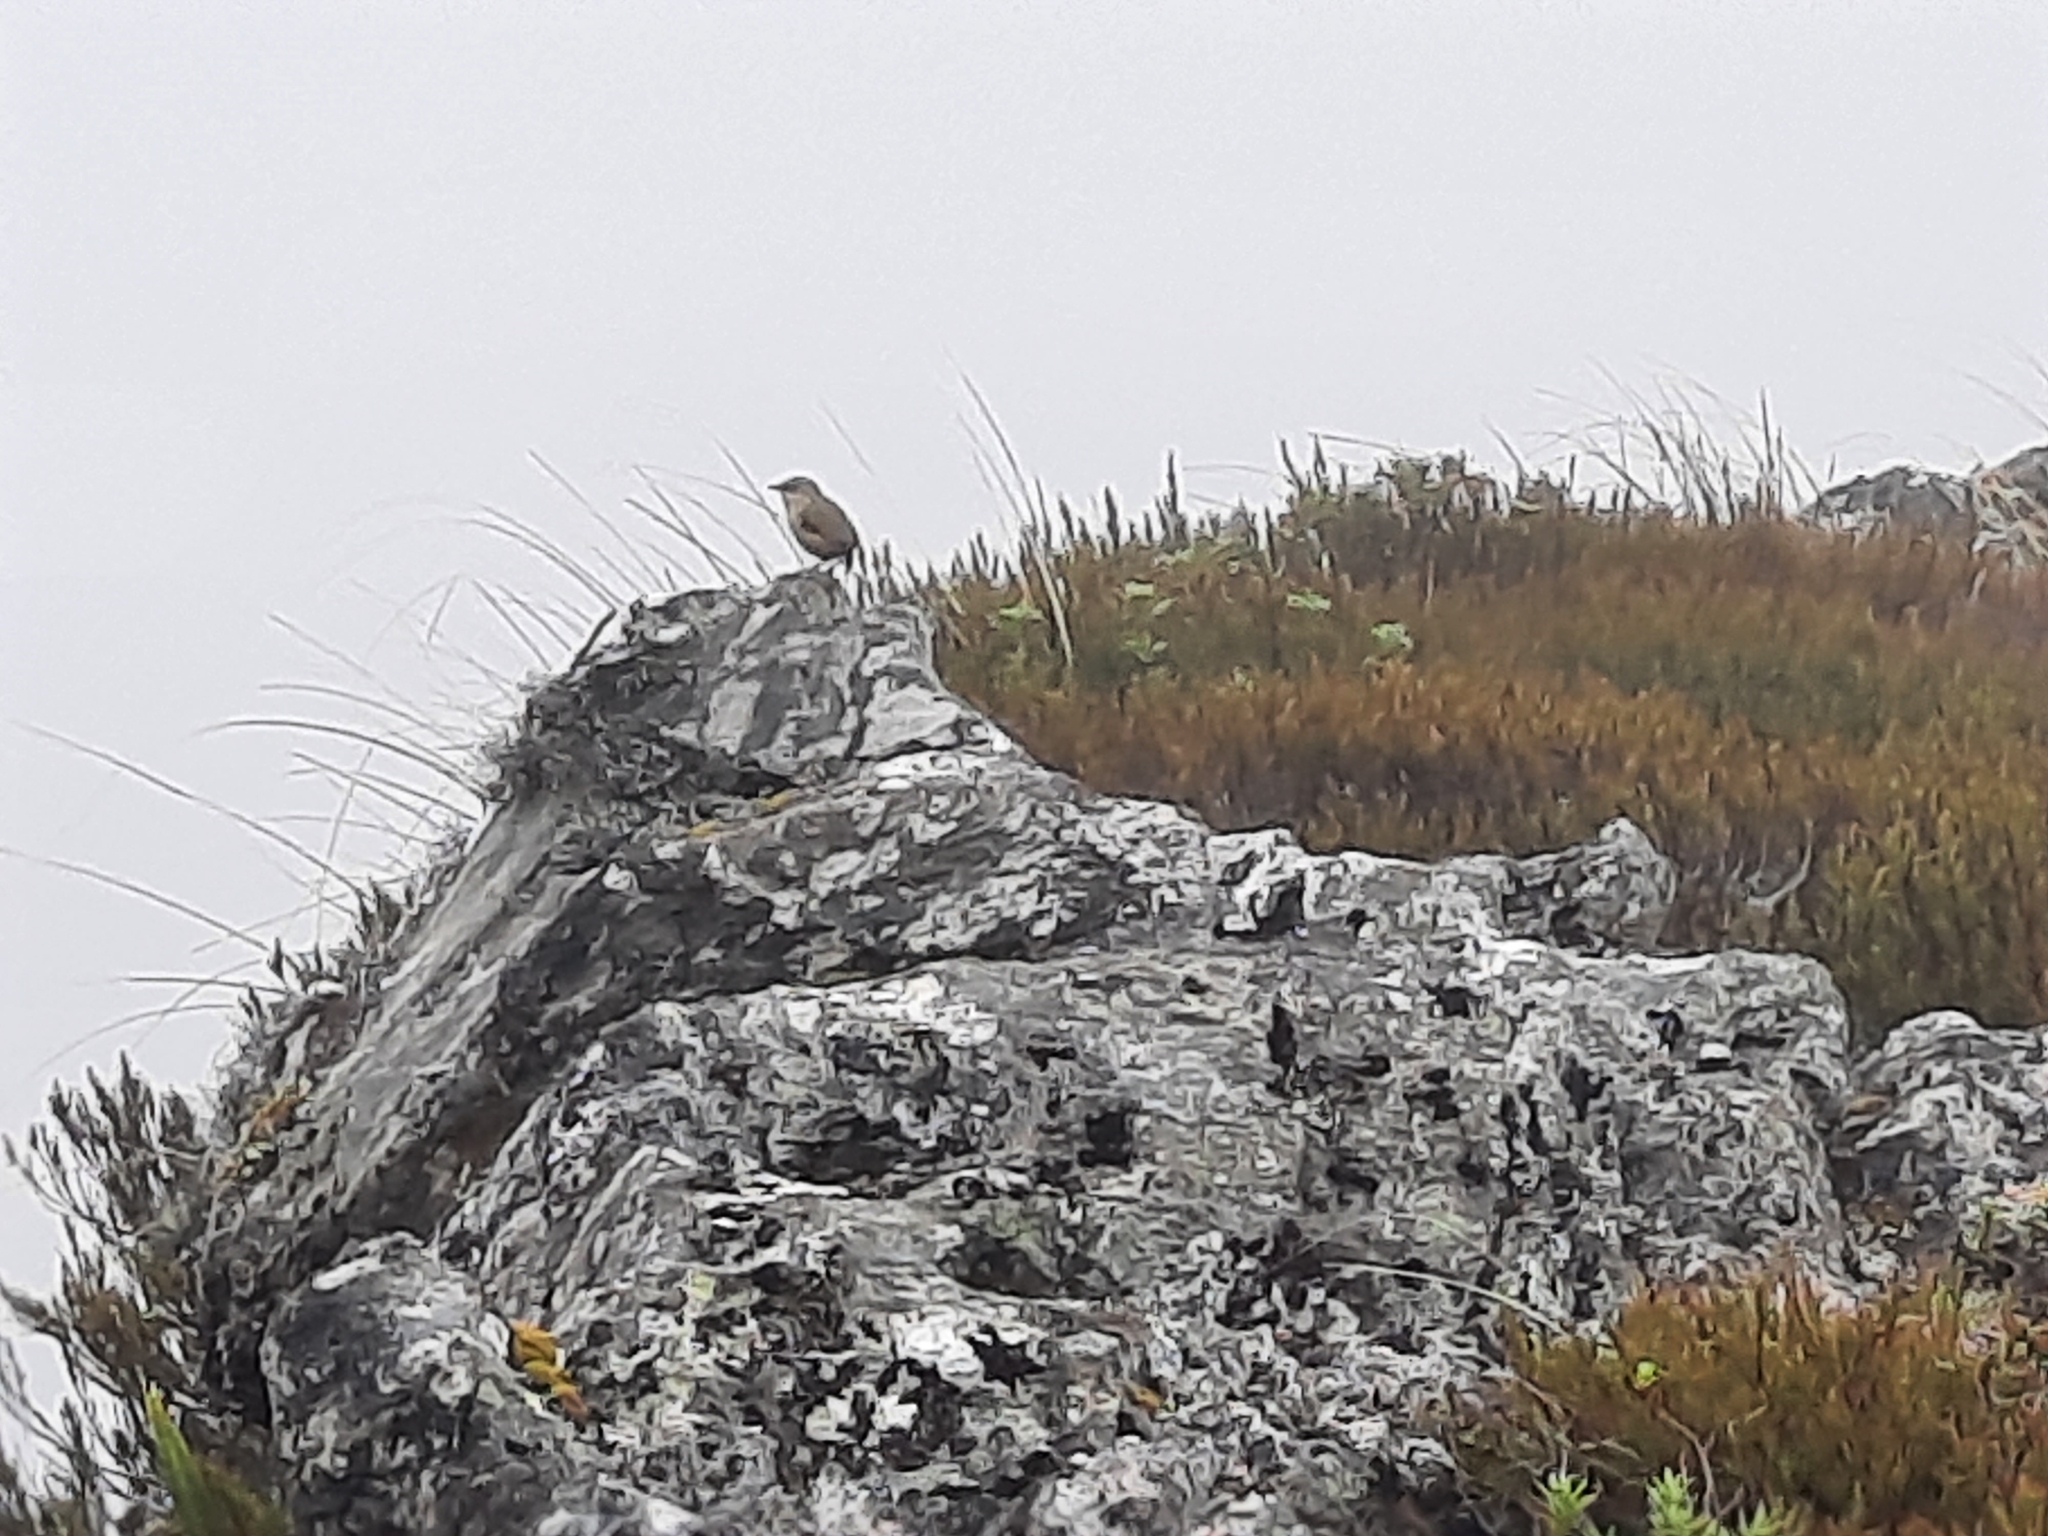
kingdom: Animalia
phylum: Chordata
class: Aves
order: Passeriformes
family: Acanthisittidae
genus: Xenicus
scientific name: Xenicus gilviventris
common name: New zealand rockwren
